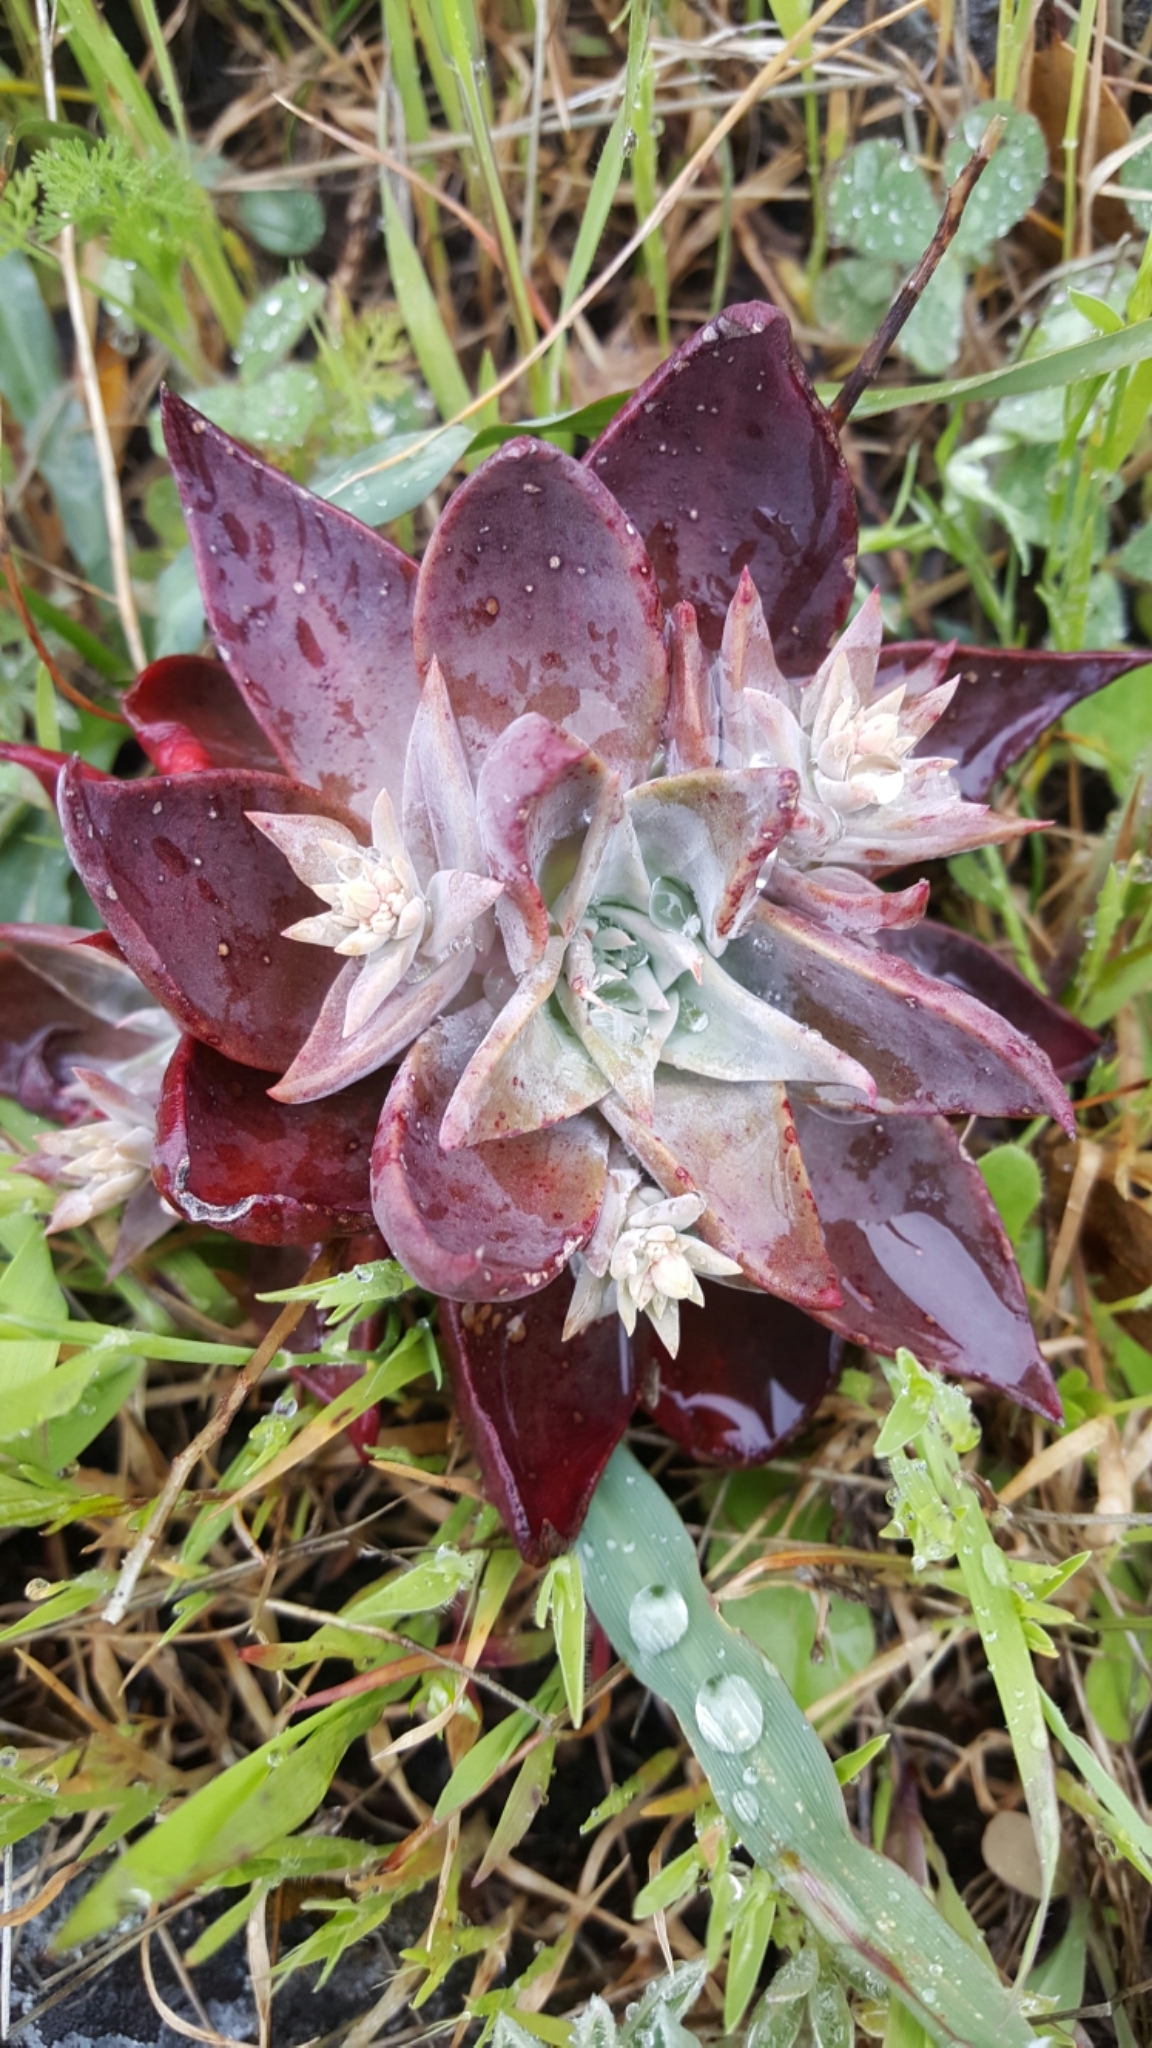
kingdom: Plantae
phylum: Tracheophyta
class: Magnoliopsida
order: Saxifragales
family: Crassulaceae
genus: Dudleya
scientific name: Dudleya cymosa
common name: Canyon dudleya
